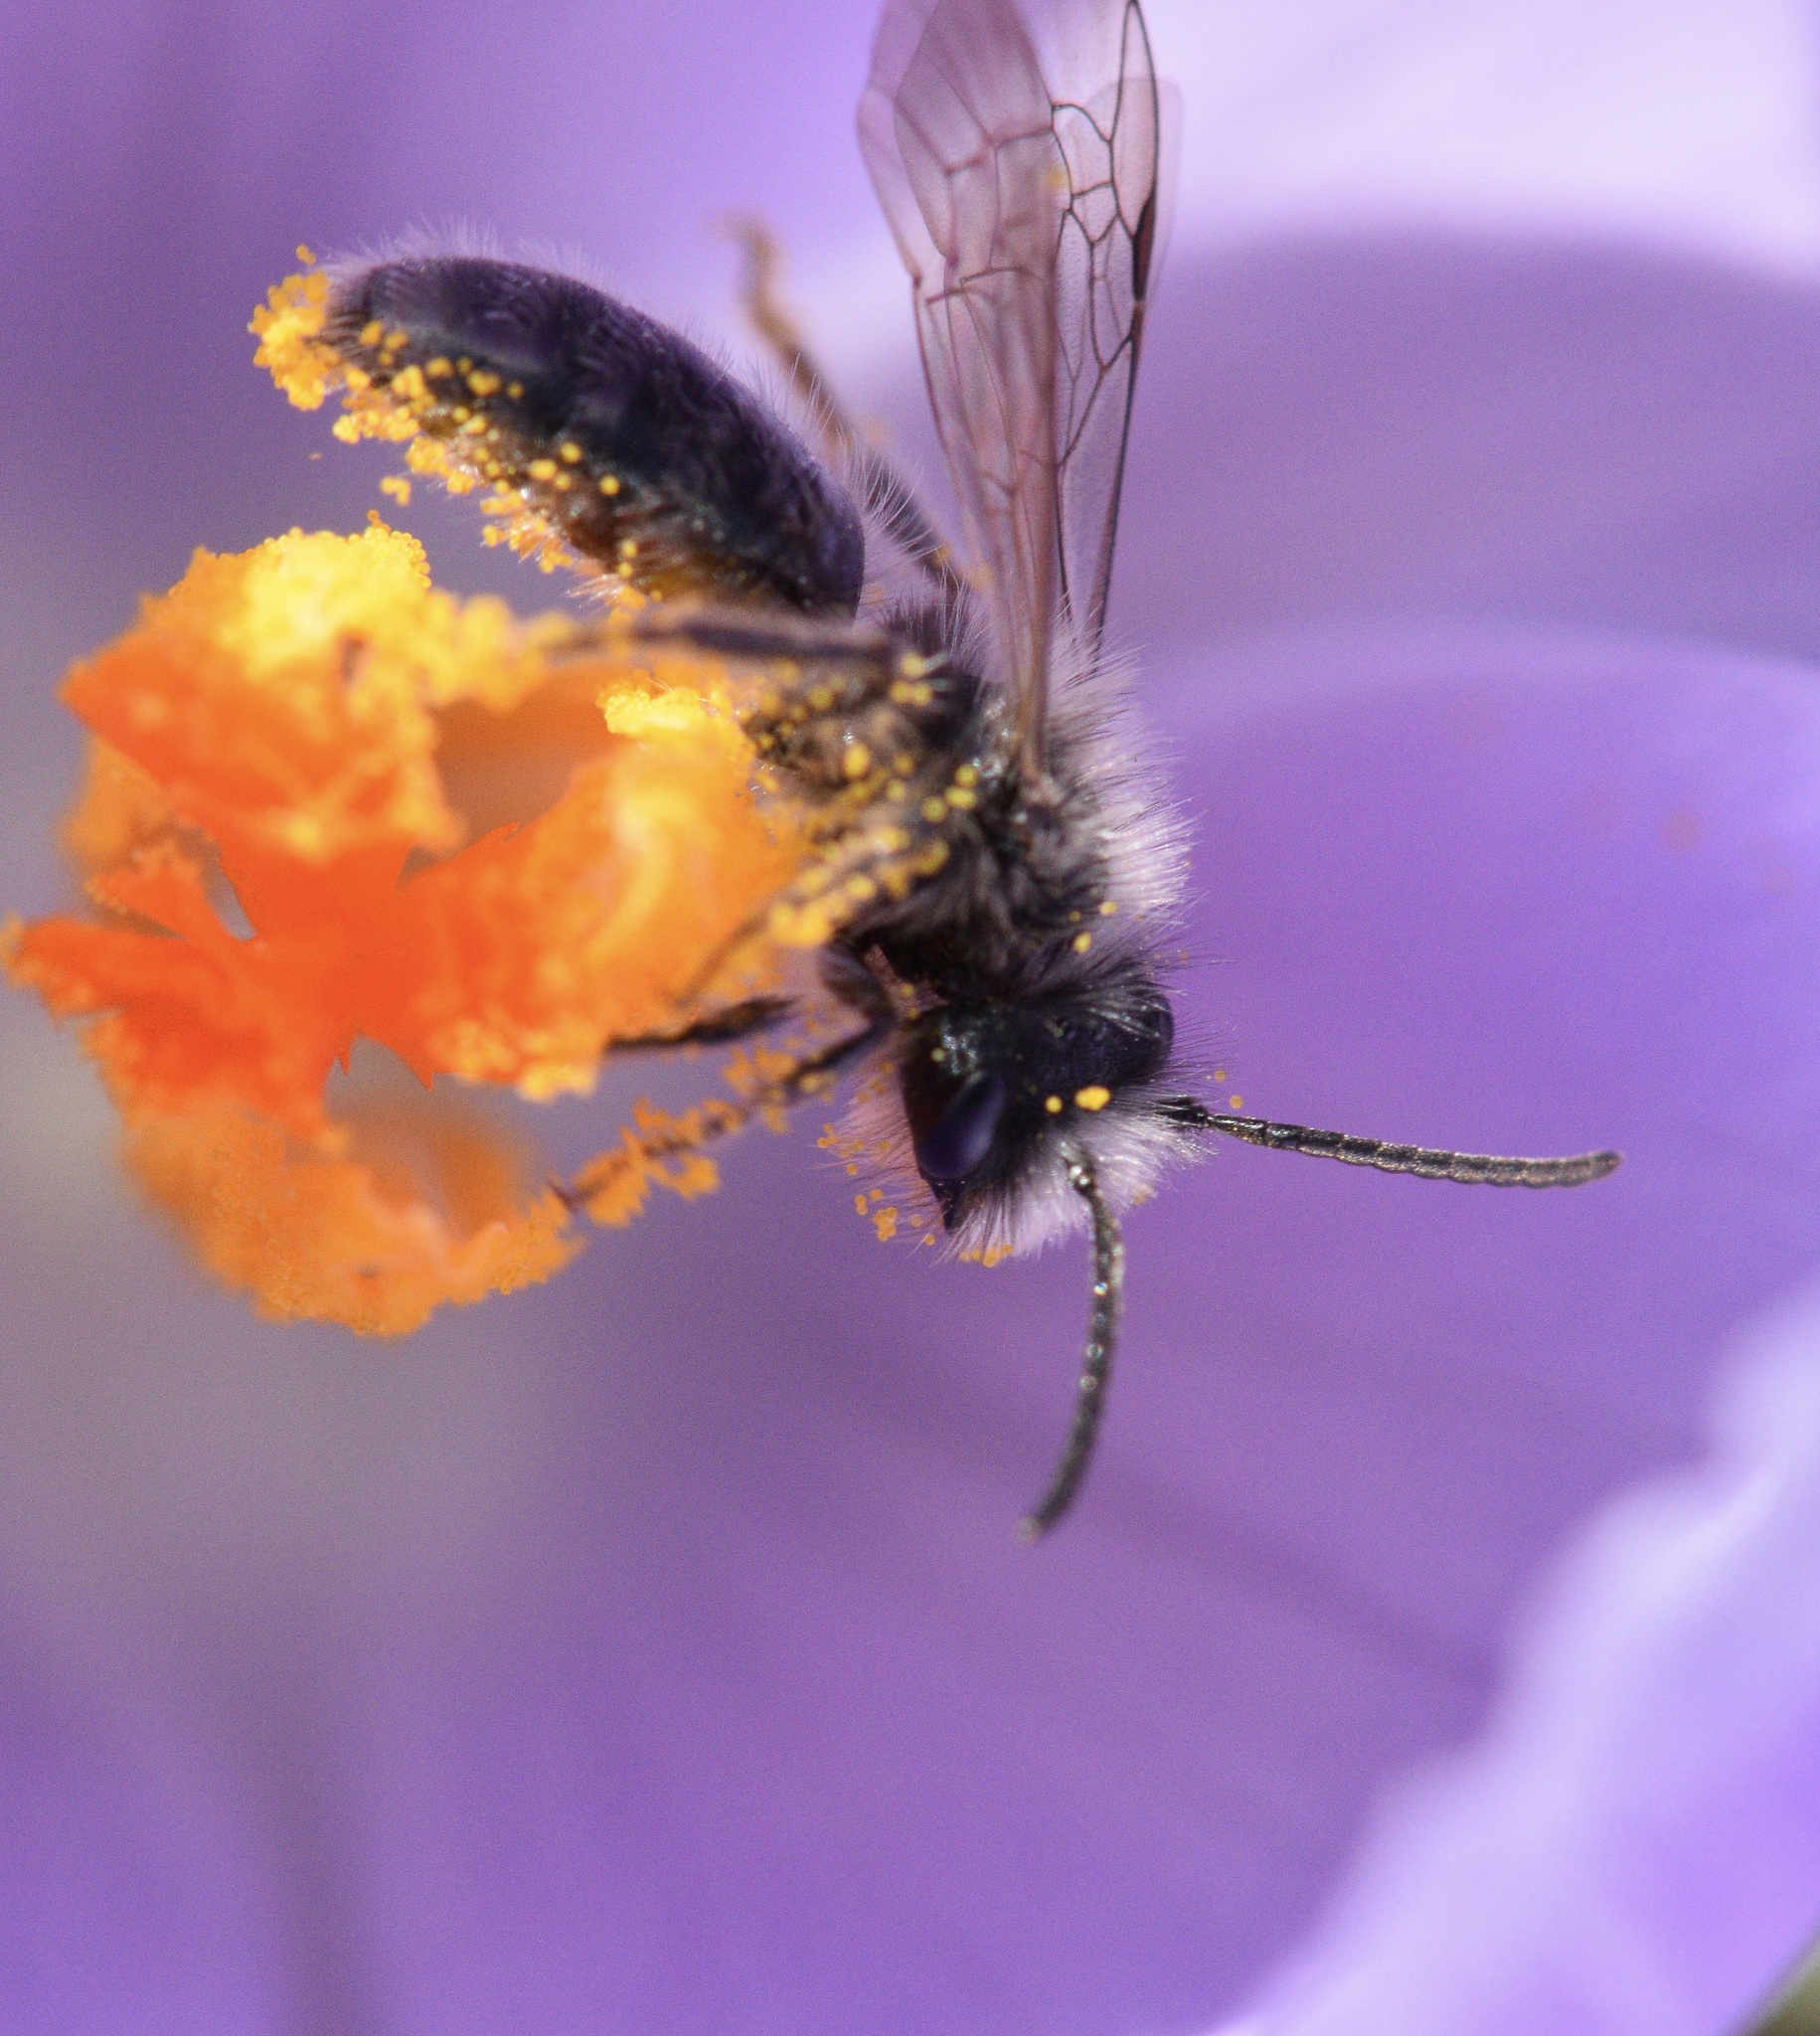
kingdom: Animalia
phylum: Arthropoda
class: Insecta
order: Hymenoptera
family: Andrenidae
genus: Andrena
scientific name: Andrena frigida
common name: Frigid mining bee
